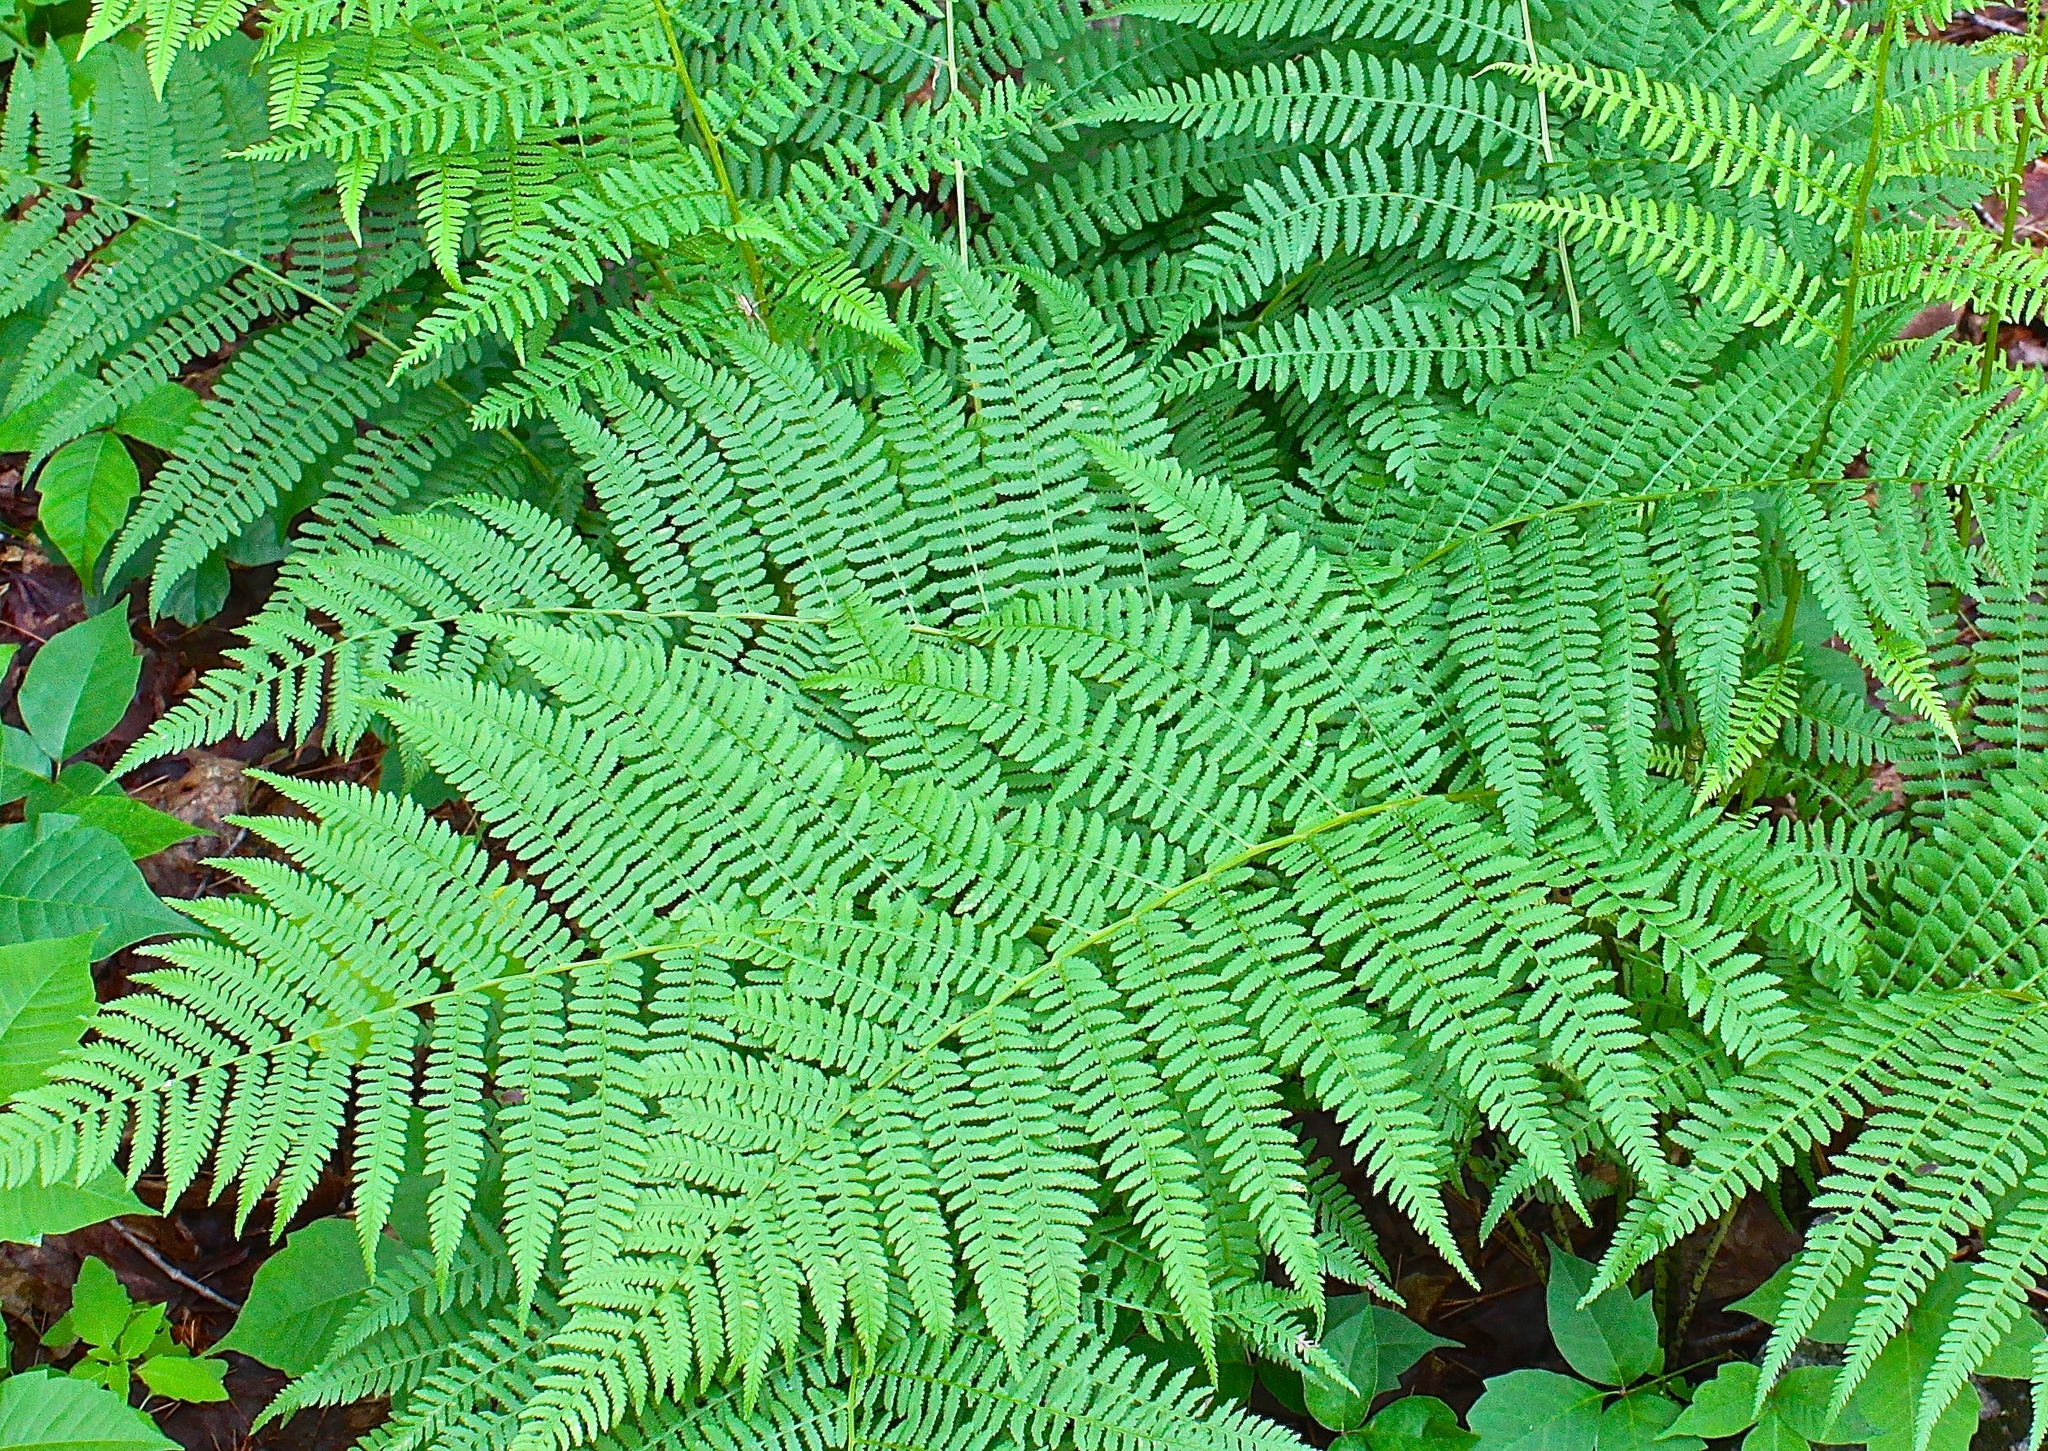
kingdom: Plantae
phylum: Tracheophyta
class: Polypodiopsida
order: Polypodiales
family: Athyriaceae
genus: Athyrium
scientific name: Athyrium angustum
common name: Northern lady fern
